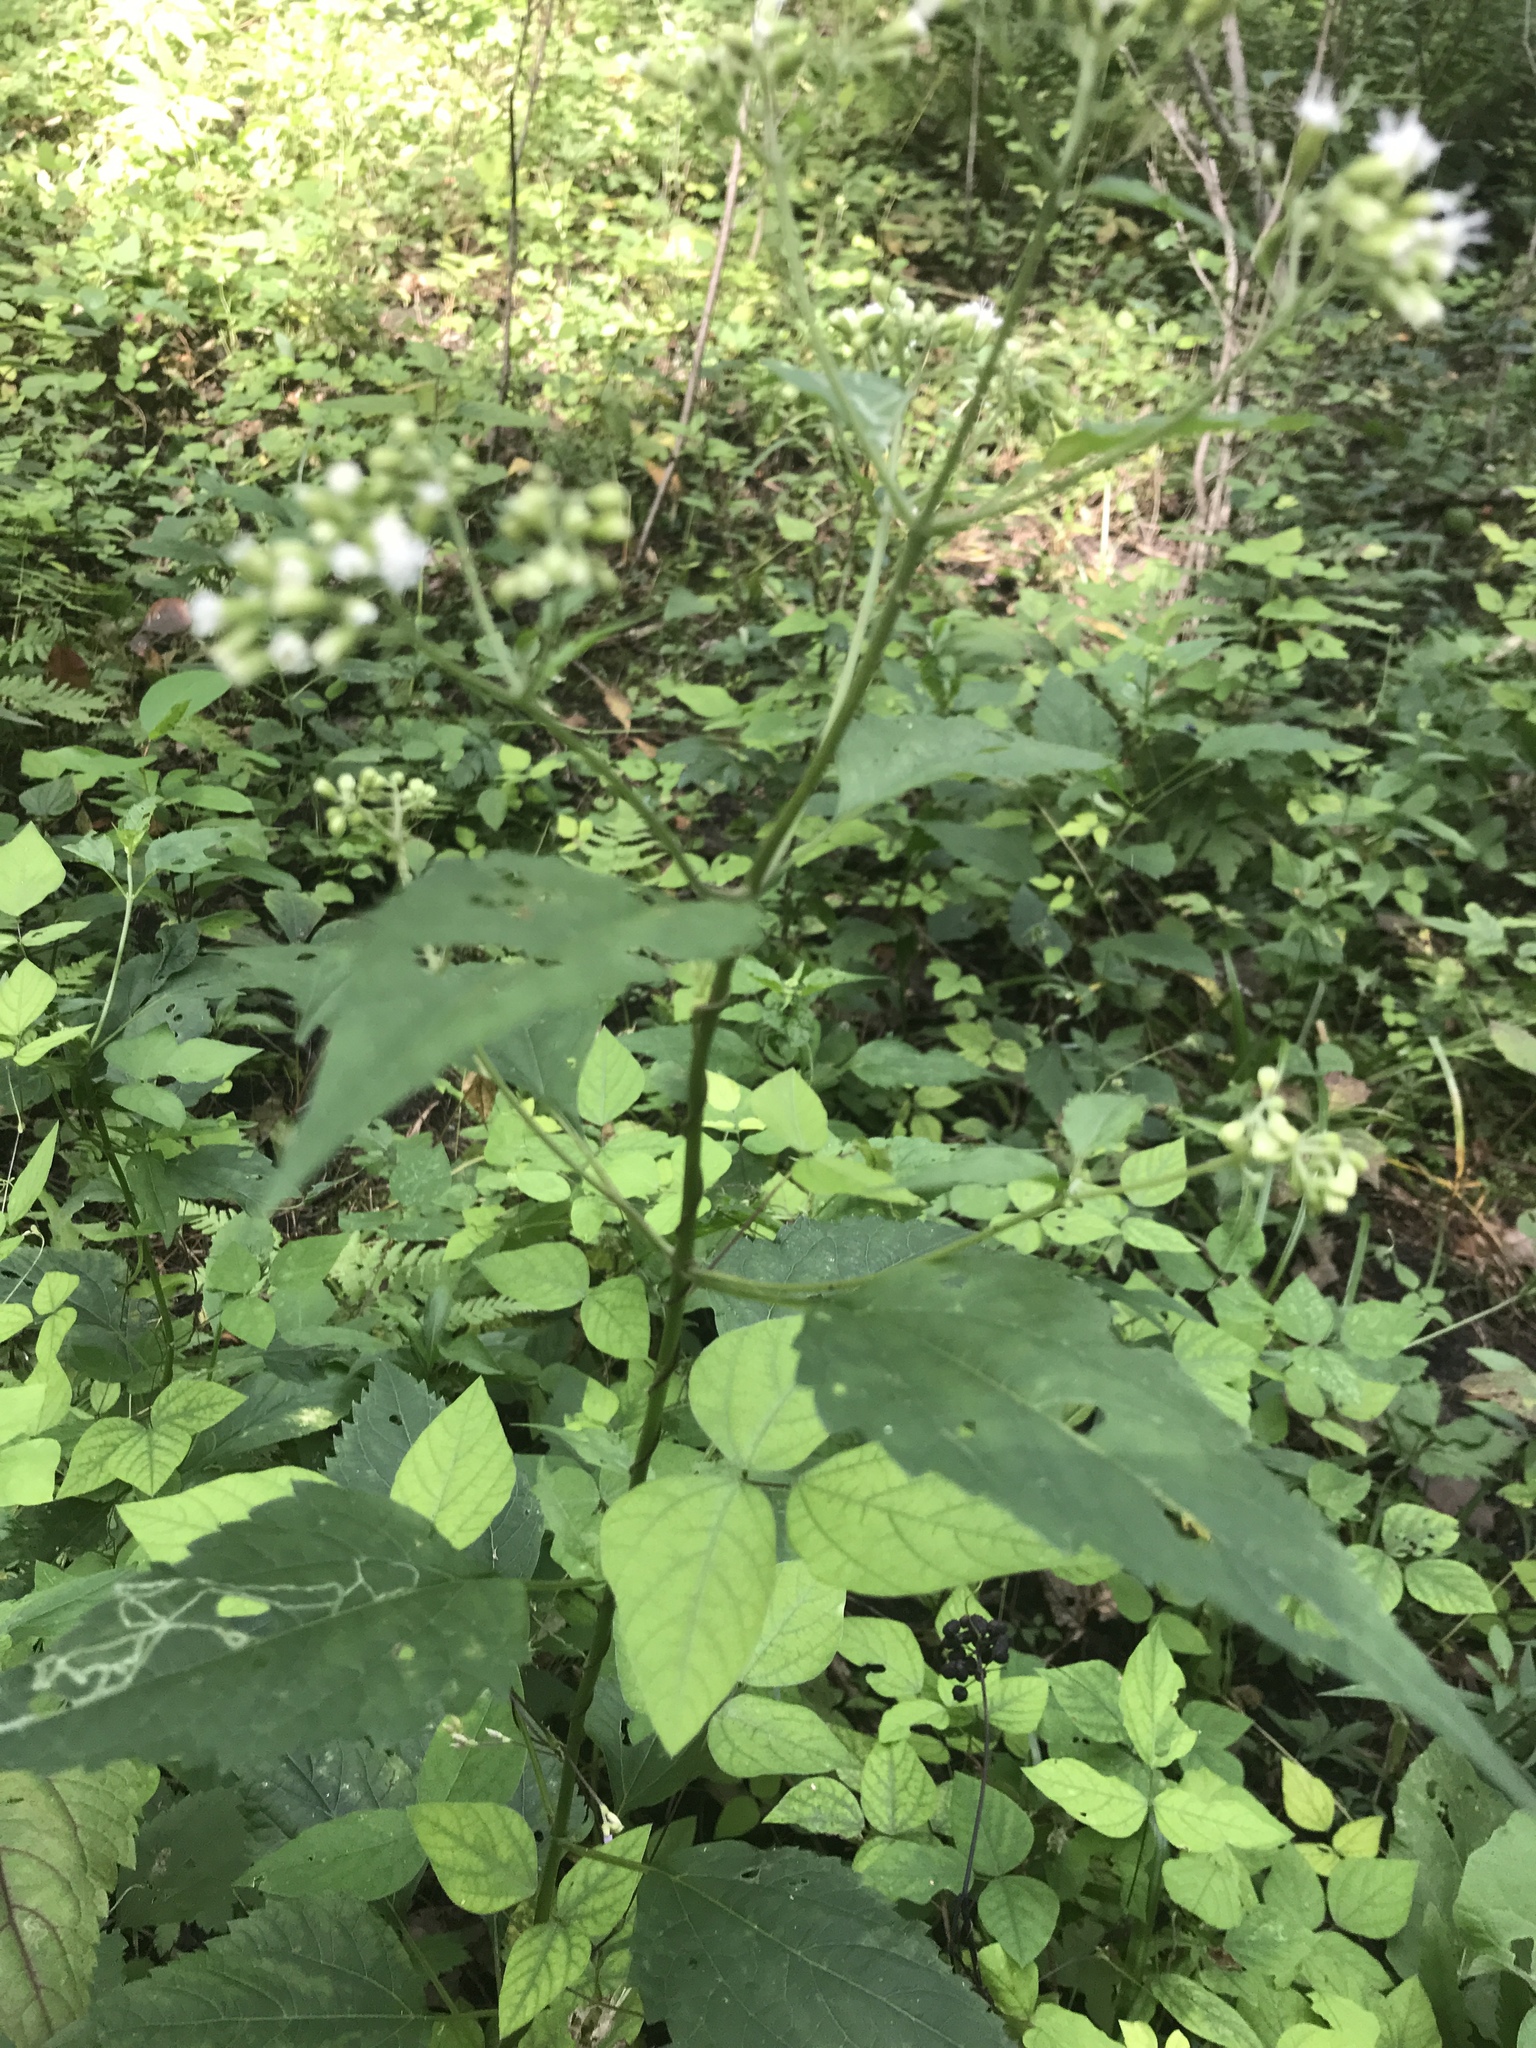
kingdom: Plantae
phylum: Tracheophyta
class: Magnoliopsida
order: Asterales
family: Asteraceae
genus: Ageratina
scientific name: Ageratina altissima
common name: White snakeroot
